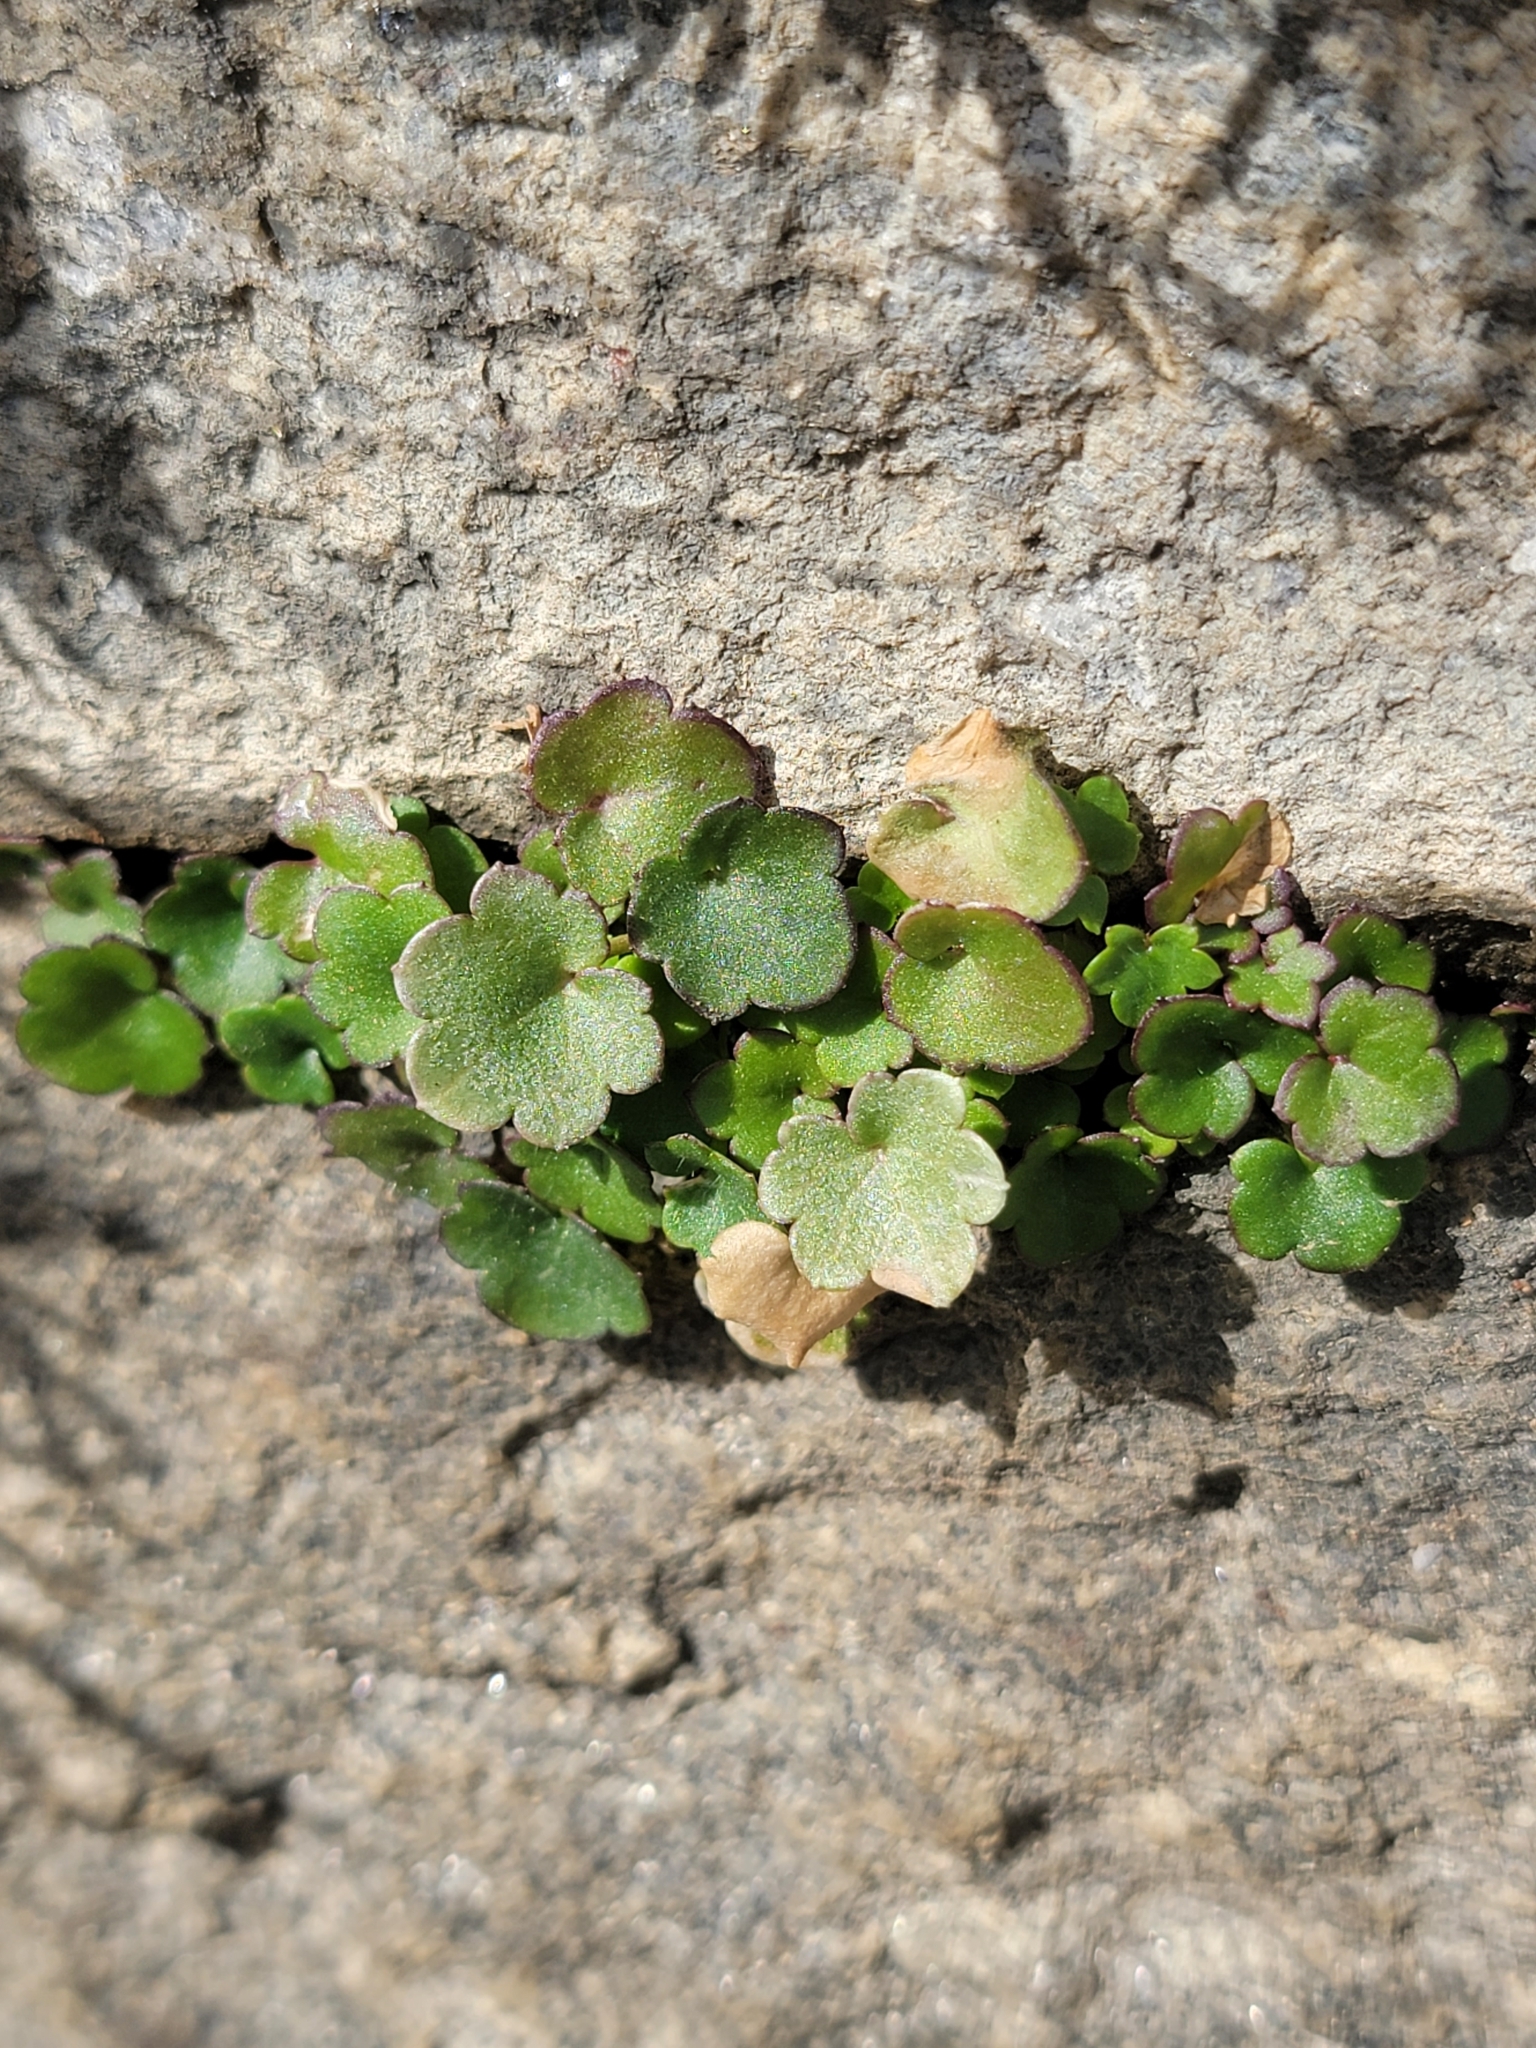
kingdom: Plantae
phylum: Tracheophyta
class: Magnoliopsida
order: Lamiales
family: Plantaginaceae
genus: Cymbalaria
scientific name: Cymbalaria muralis
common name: Ivy-leaved toadflax
